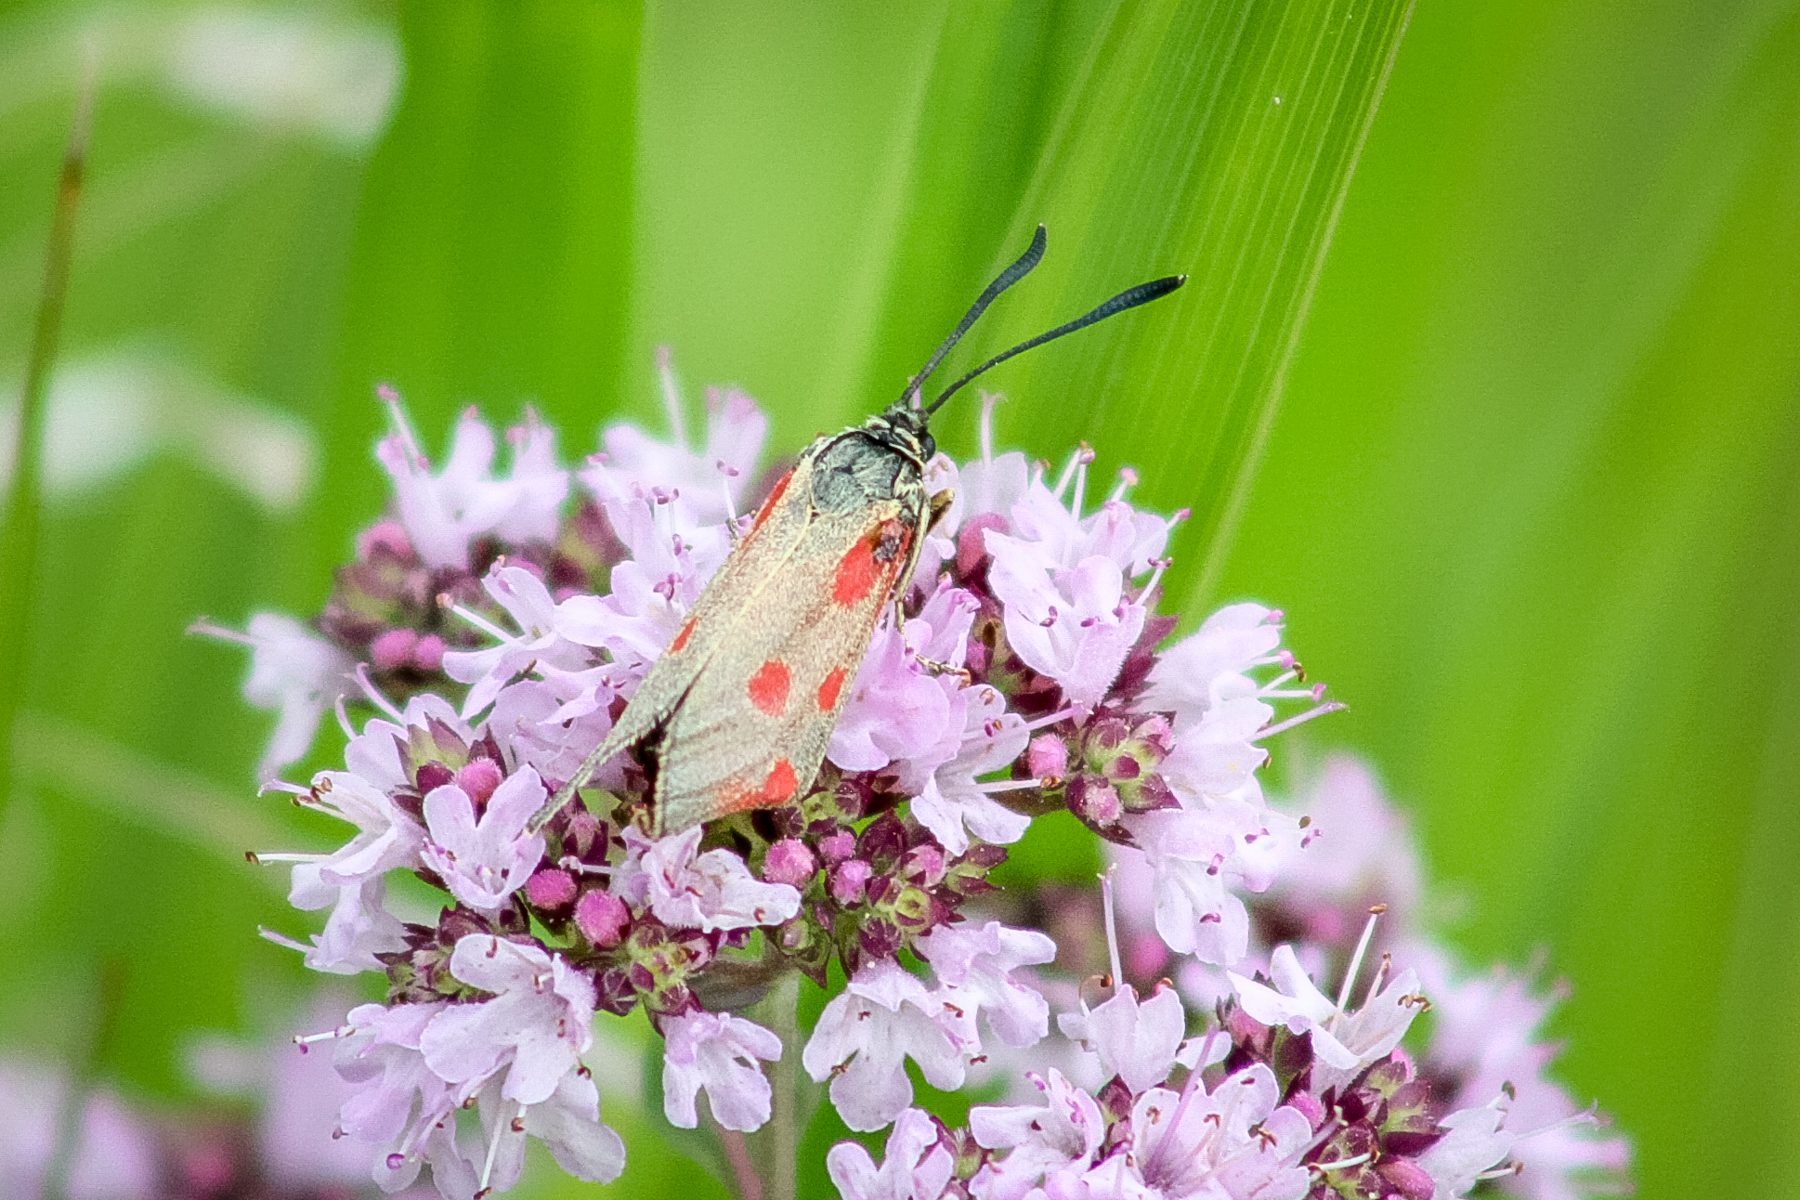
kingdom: Animalia
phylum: Arthropoda
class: Insecta
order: Lepidoptera
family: Zygaenidae
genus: Zygaena
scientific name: Zygaena loti
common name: Slender scotch burnet
